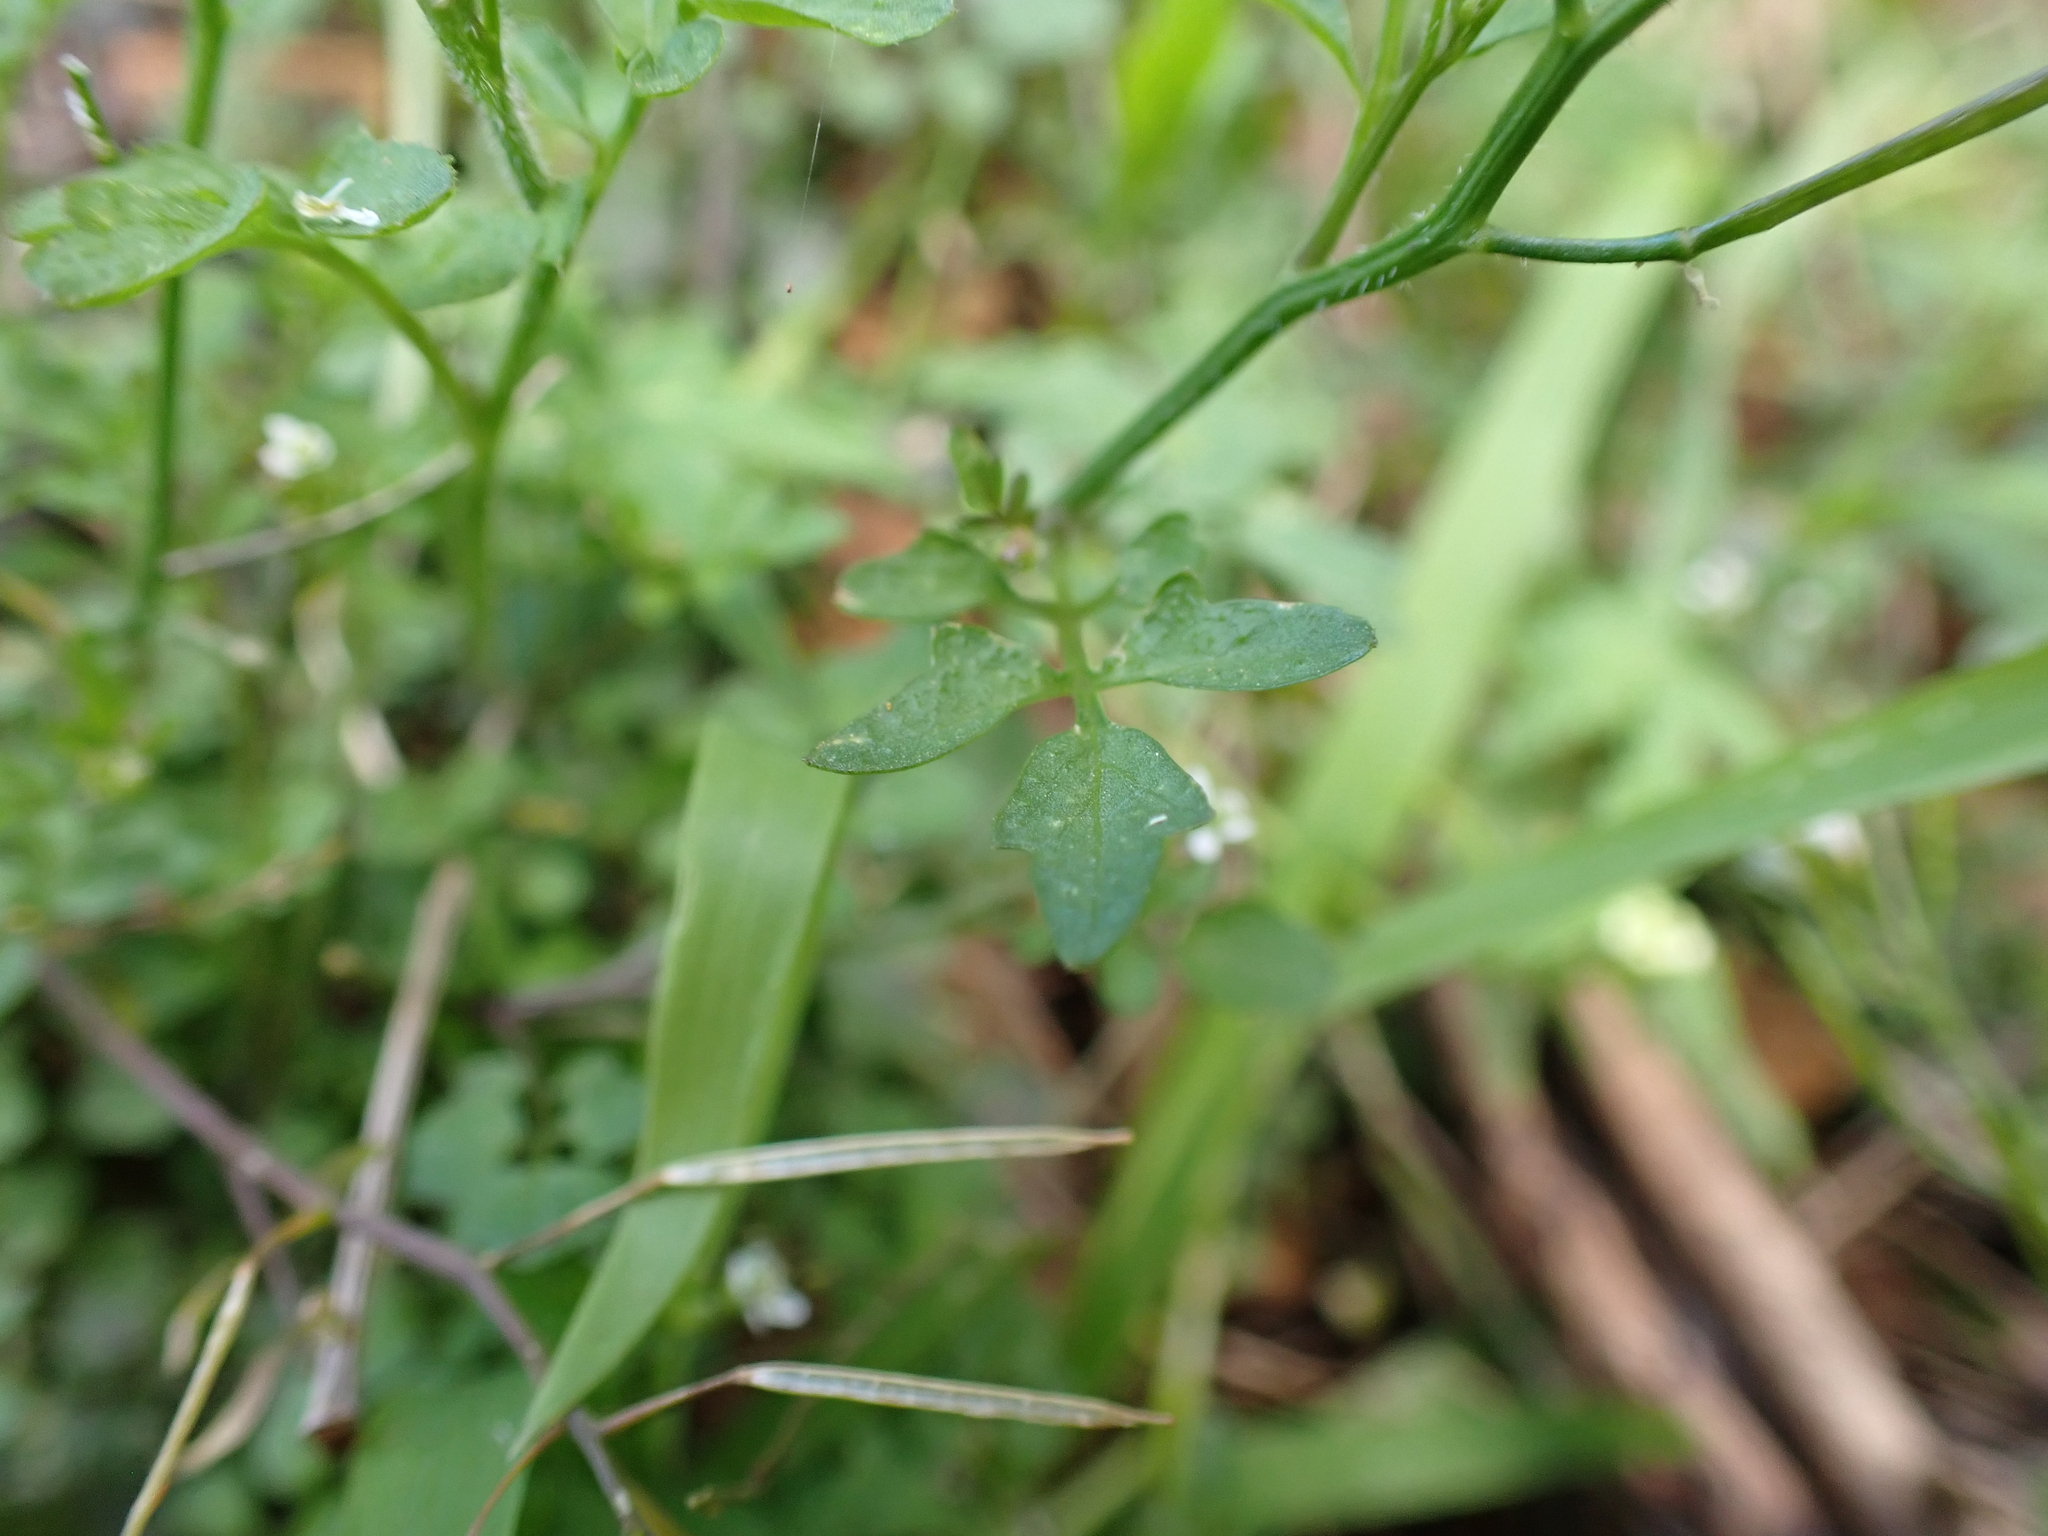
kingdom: Plantae
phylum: Tracheophyta
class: Magnoliopsida
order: Brassicales
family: Brassicaceae
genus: Cardamine
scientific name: Cardamine hirsuta
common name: Hairy bittercress
